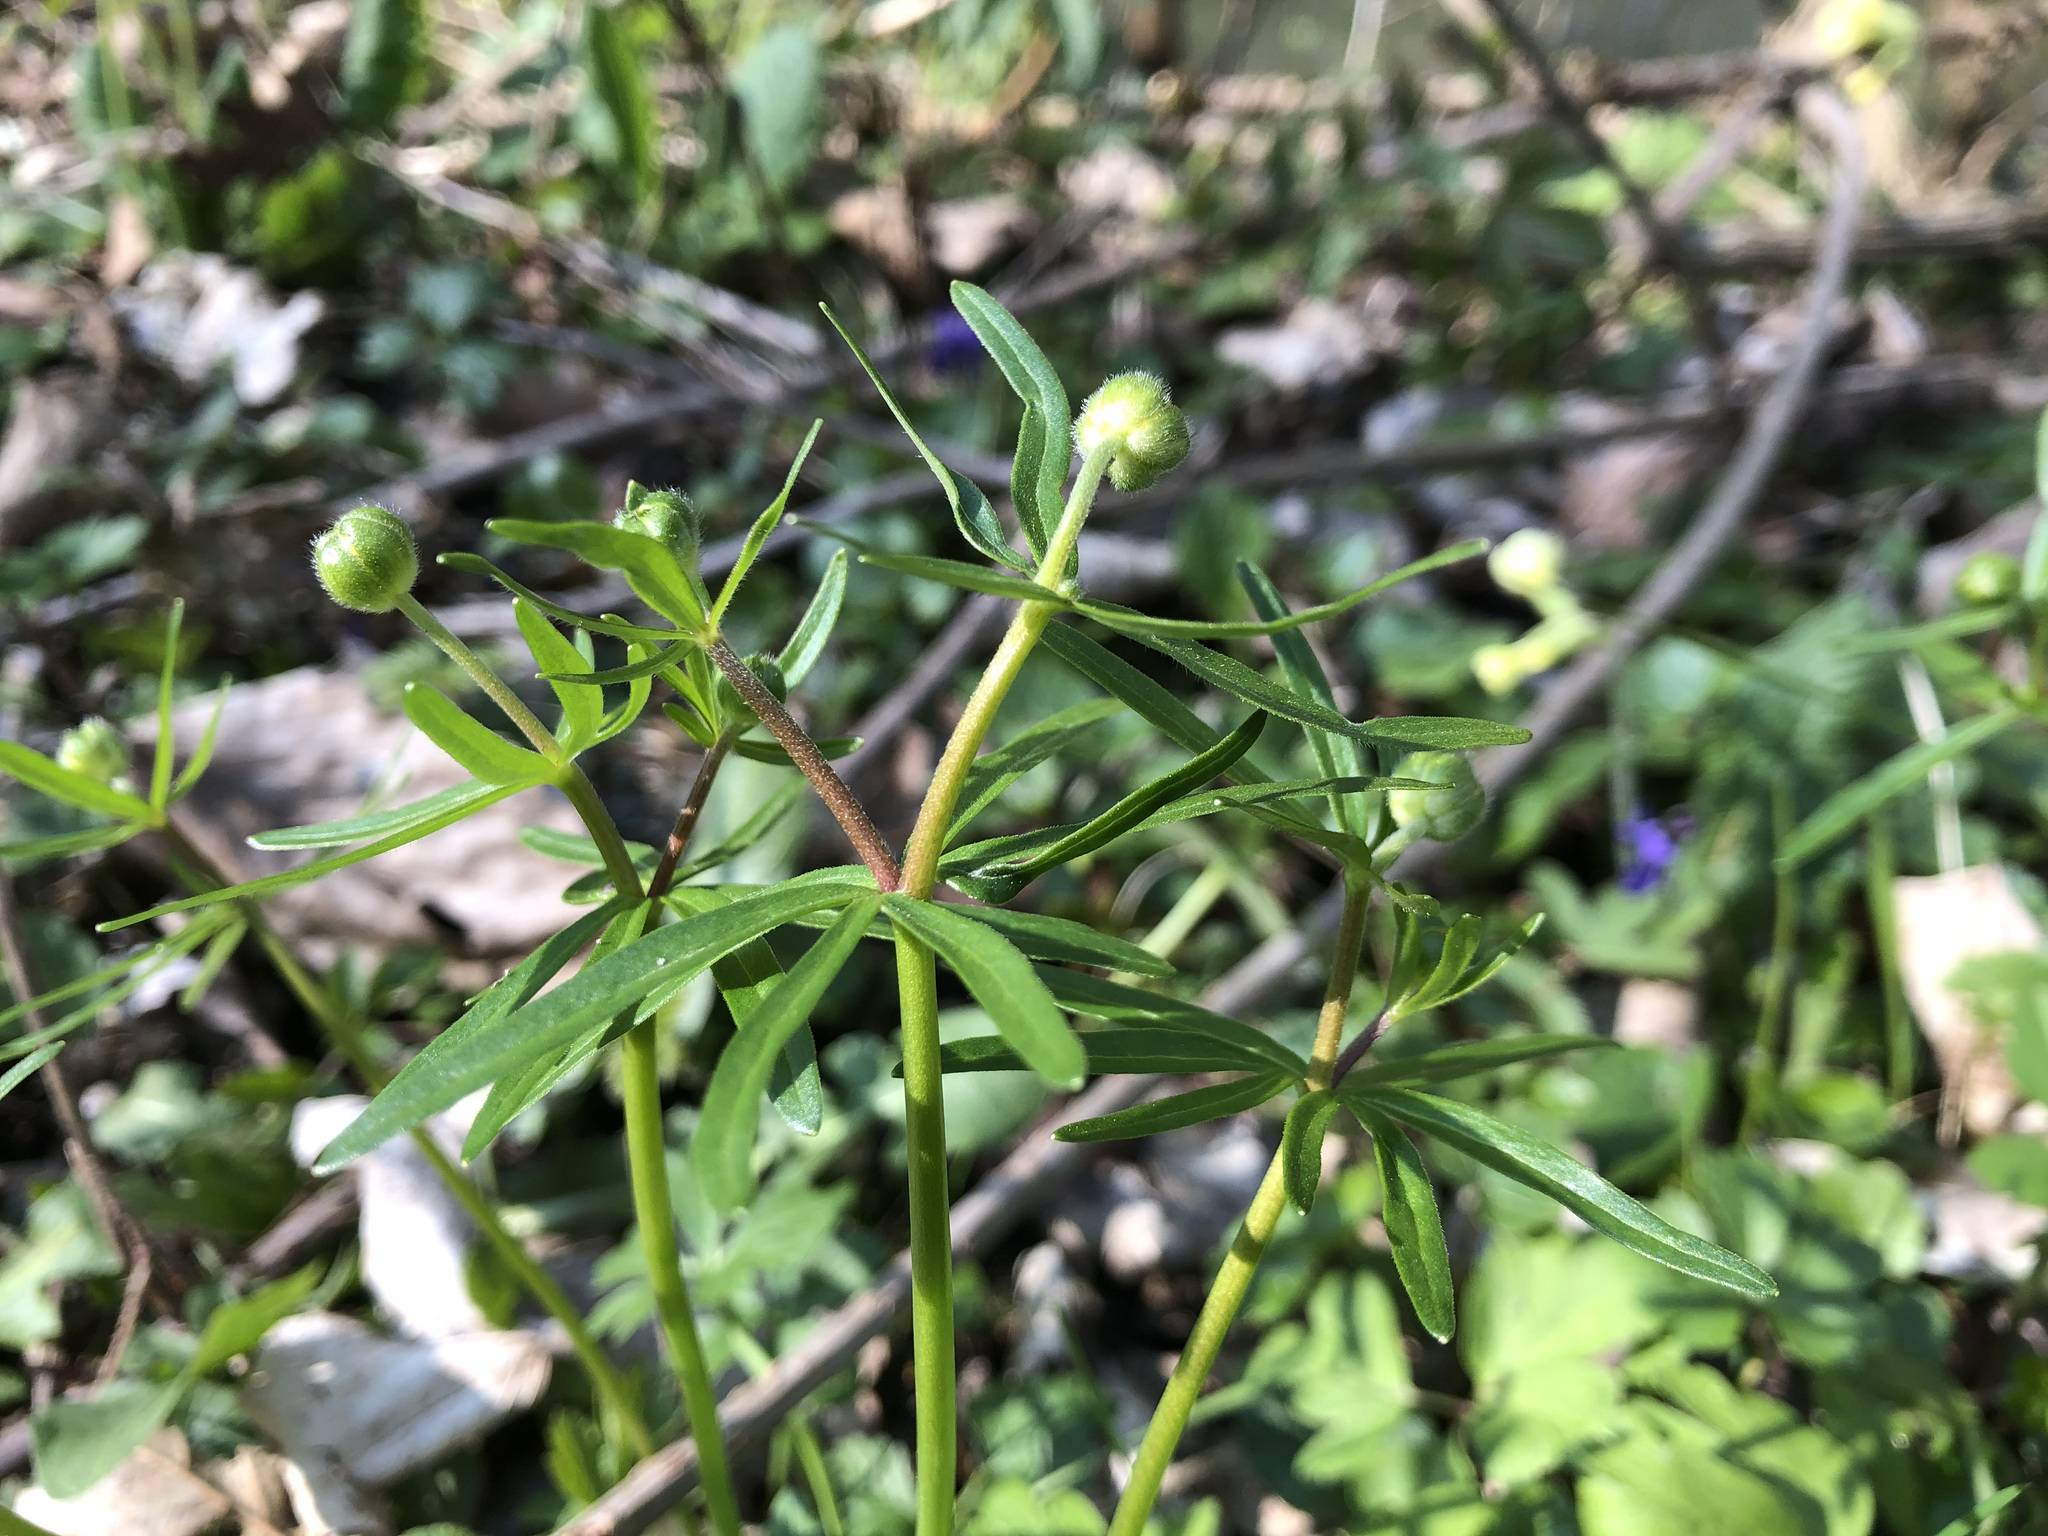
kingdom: Plantae
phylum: Tracheophyta
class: Magnoliopsida
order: Ranunculales
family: Ranunculaceae
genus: Ranunculus
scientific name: Ranunculus auricomus
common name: Goldilocks buttercup
